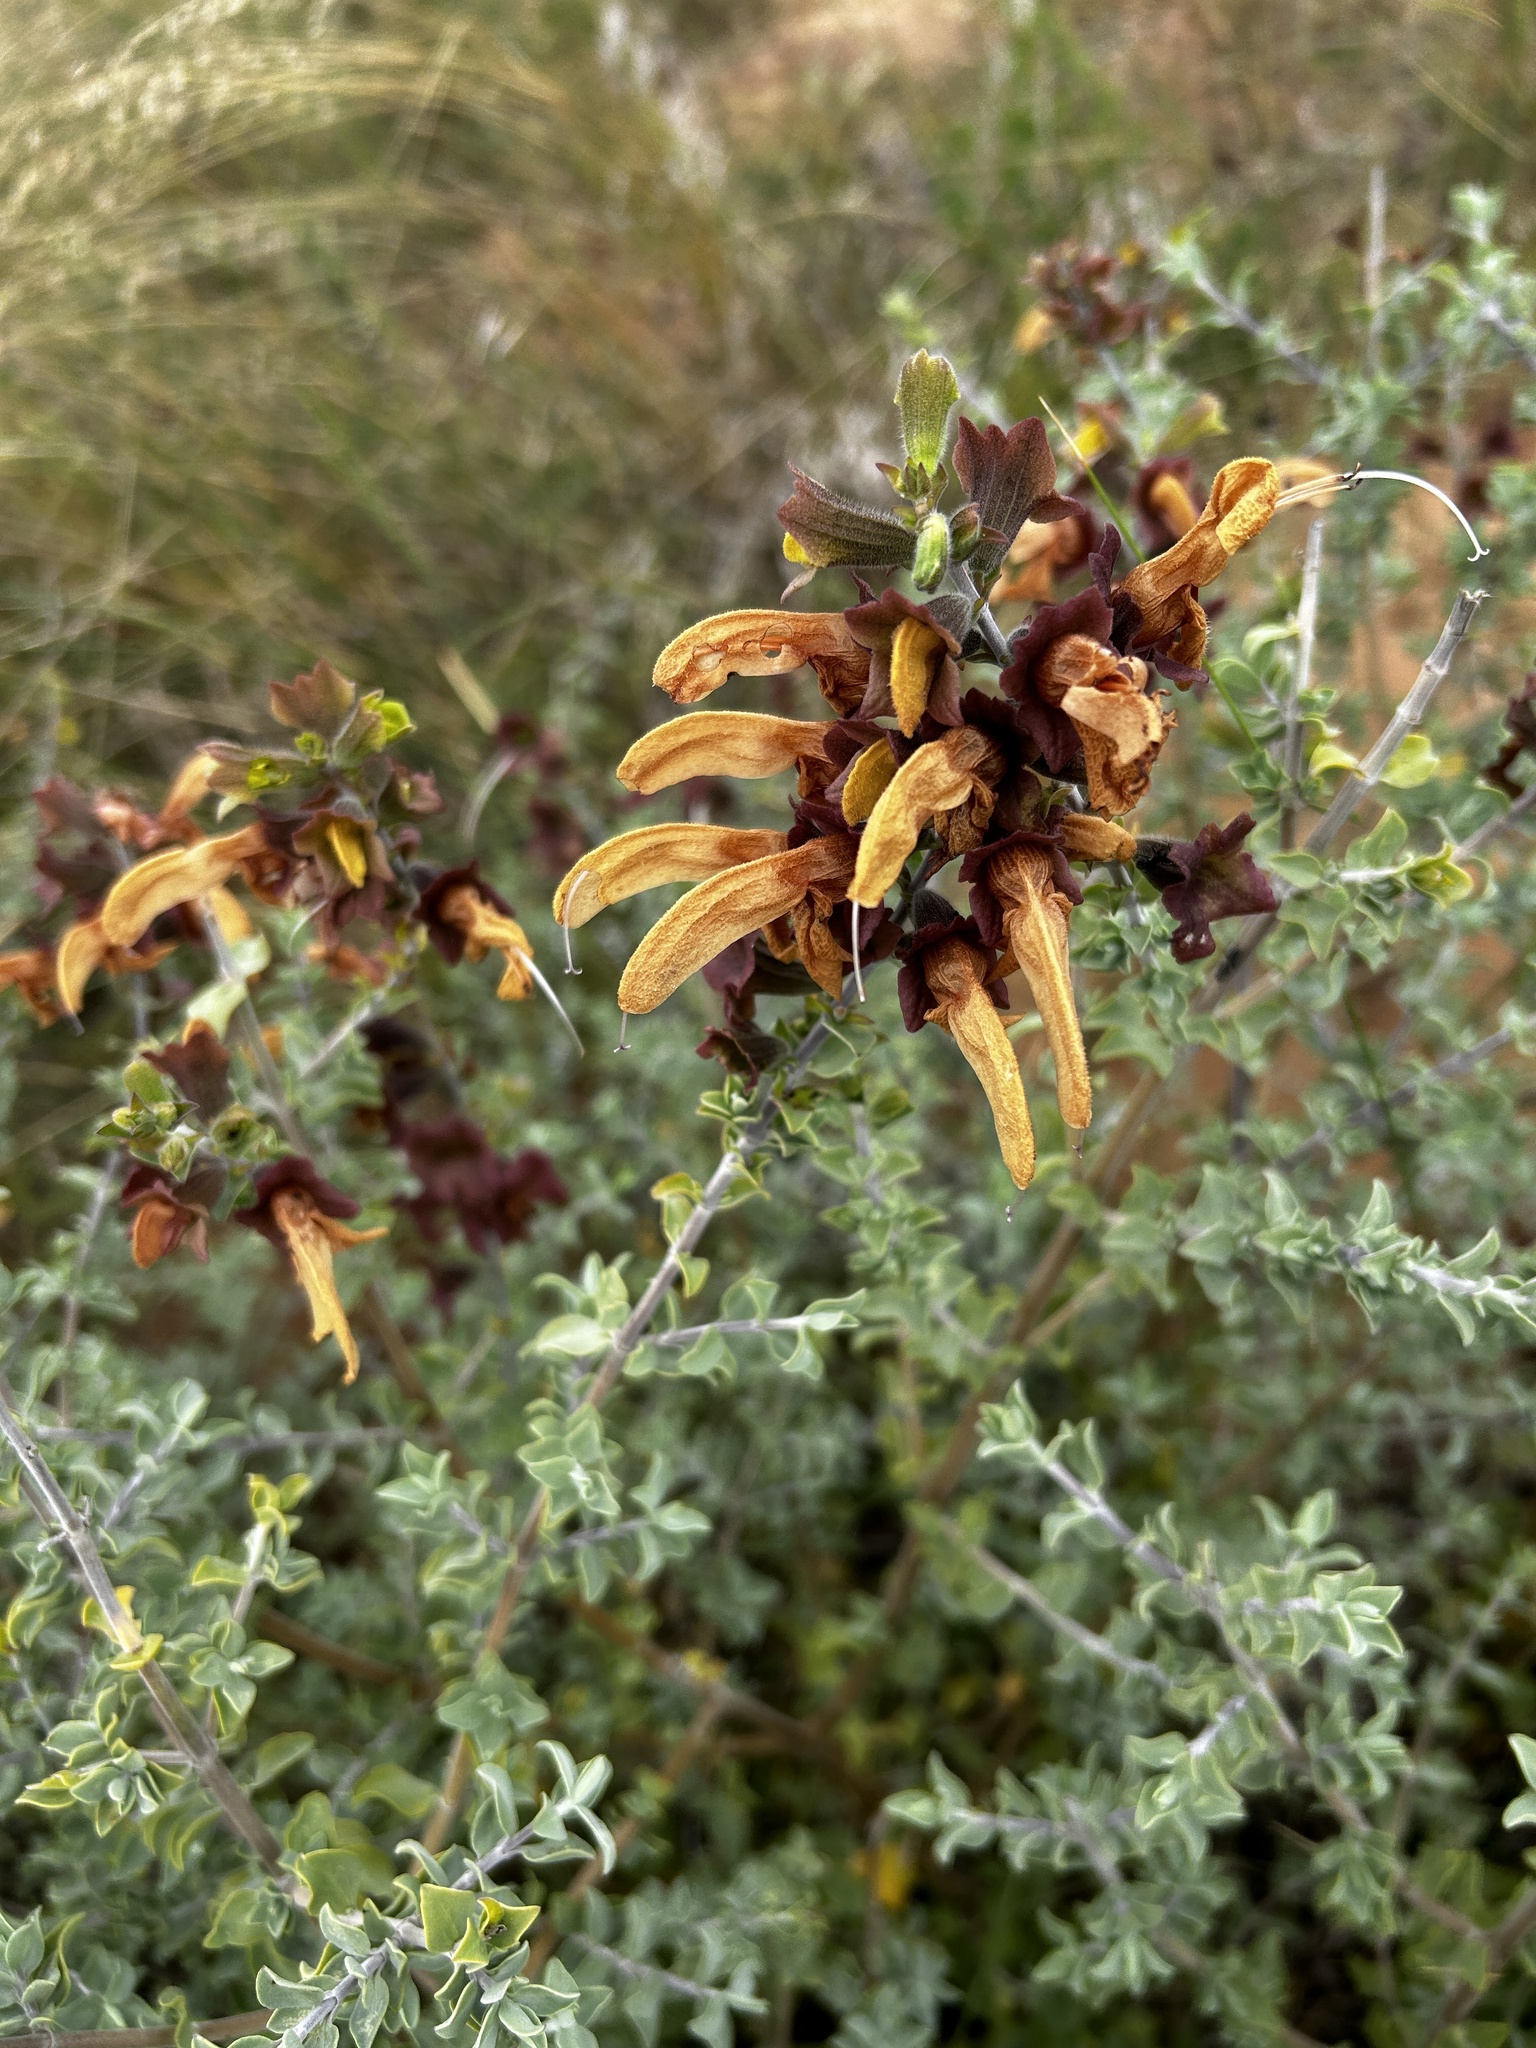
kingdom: Plantae
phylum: Tracheophyta
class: Magnoliopsida
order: Lamiales
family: Lamiaceae
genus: Salvia
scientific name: Salvia aurea
